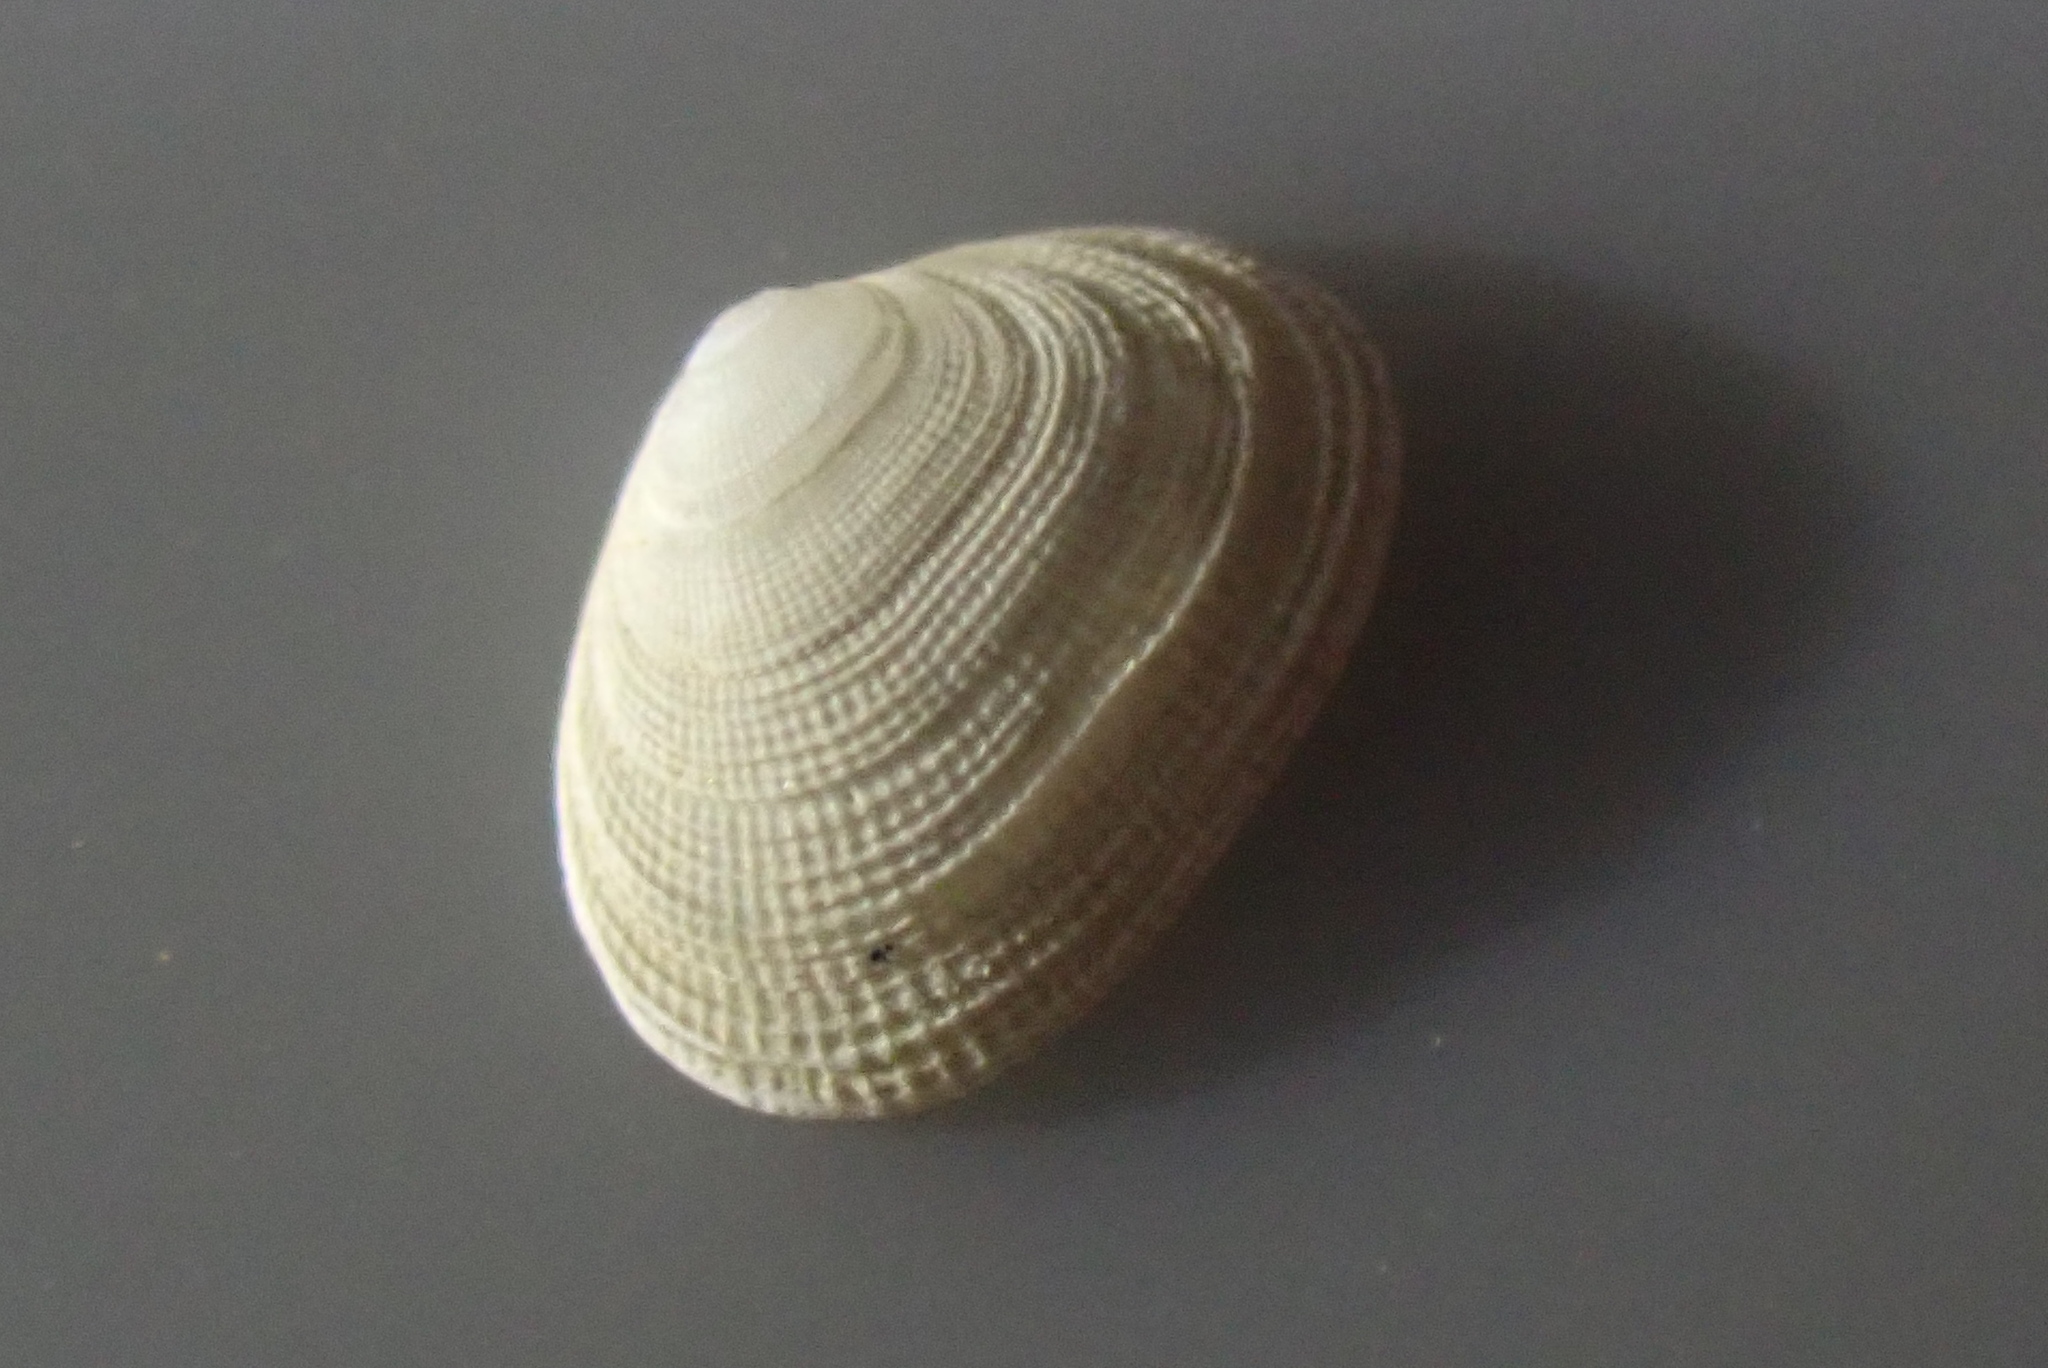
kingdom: Animalia
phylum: Mollusca
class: Bivalvia
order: Galeommatida
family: Lasaeidae
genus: Borniola
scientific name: Borniola reniformis
